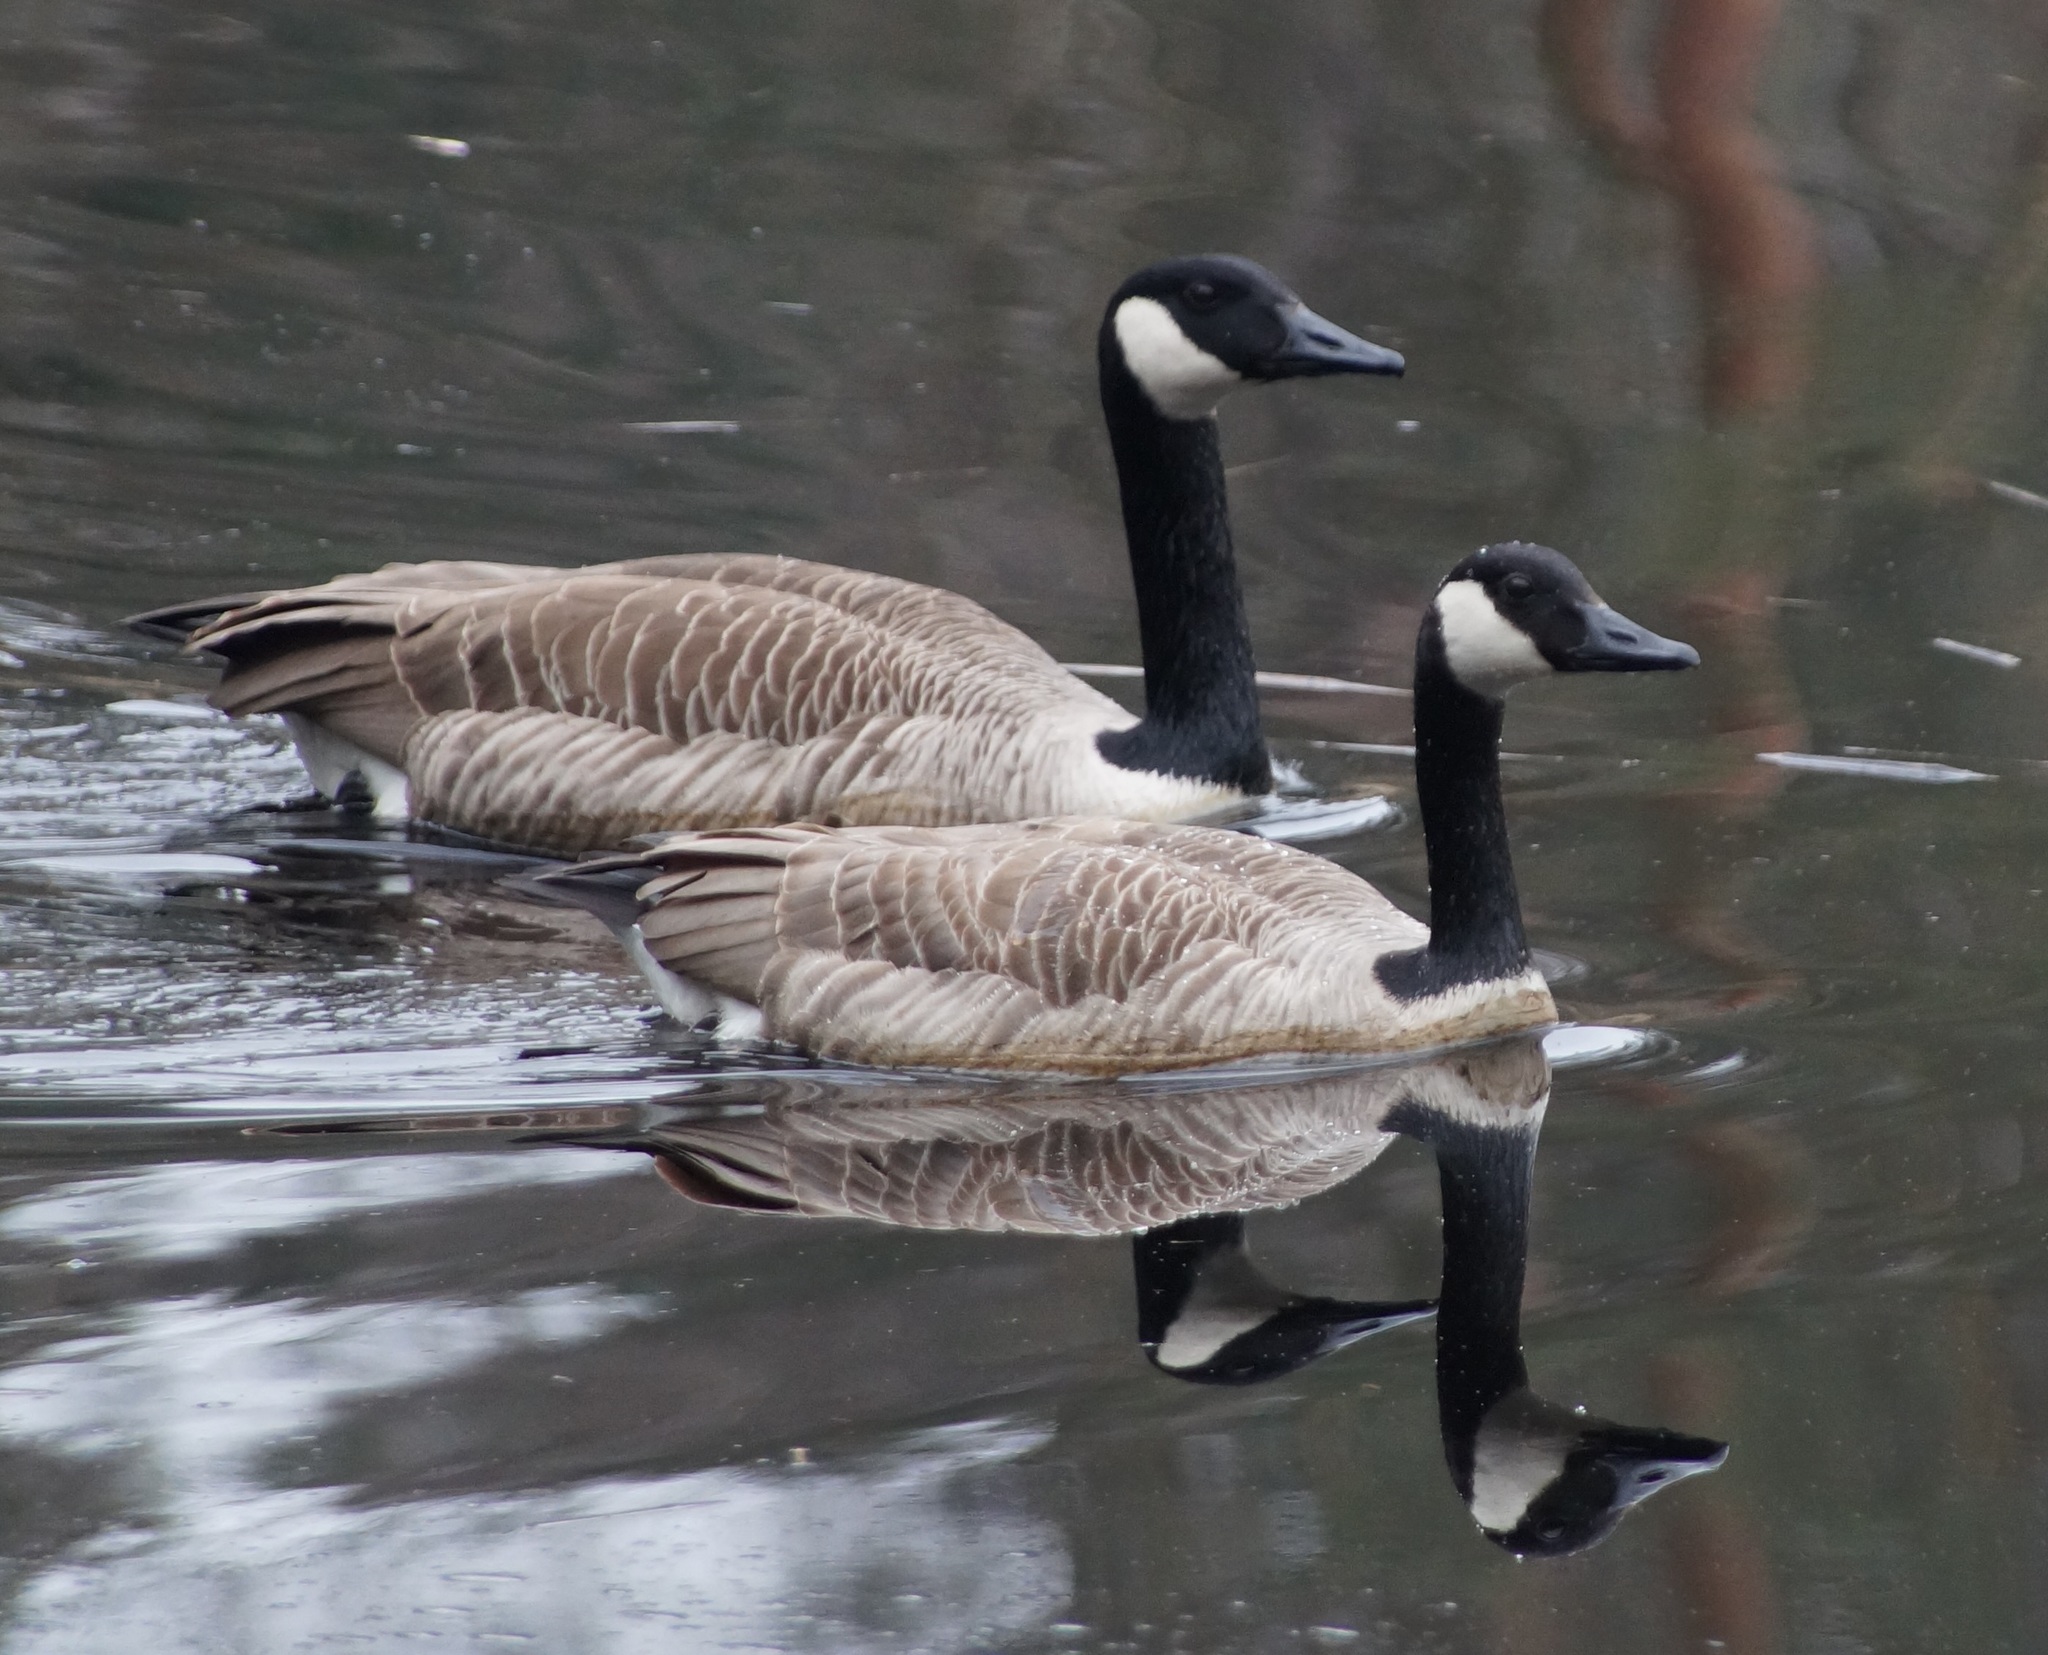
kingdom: Animalia
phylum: Chordata
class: Aves
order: Anseriformes
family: Anatidae
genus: Branta
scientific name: Branta canadensis
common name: Canada goose
